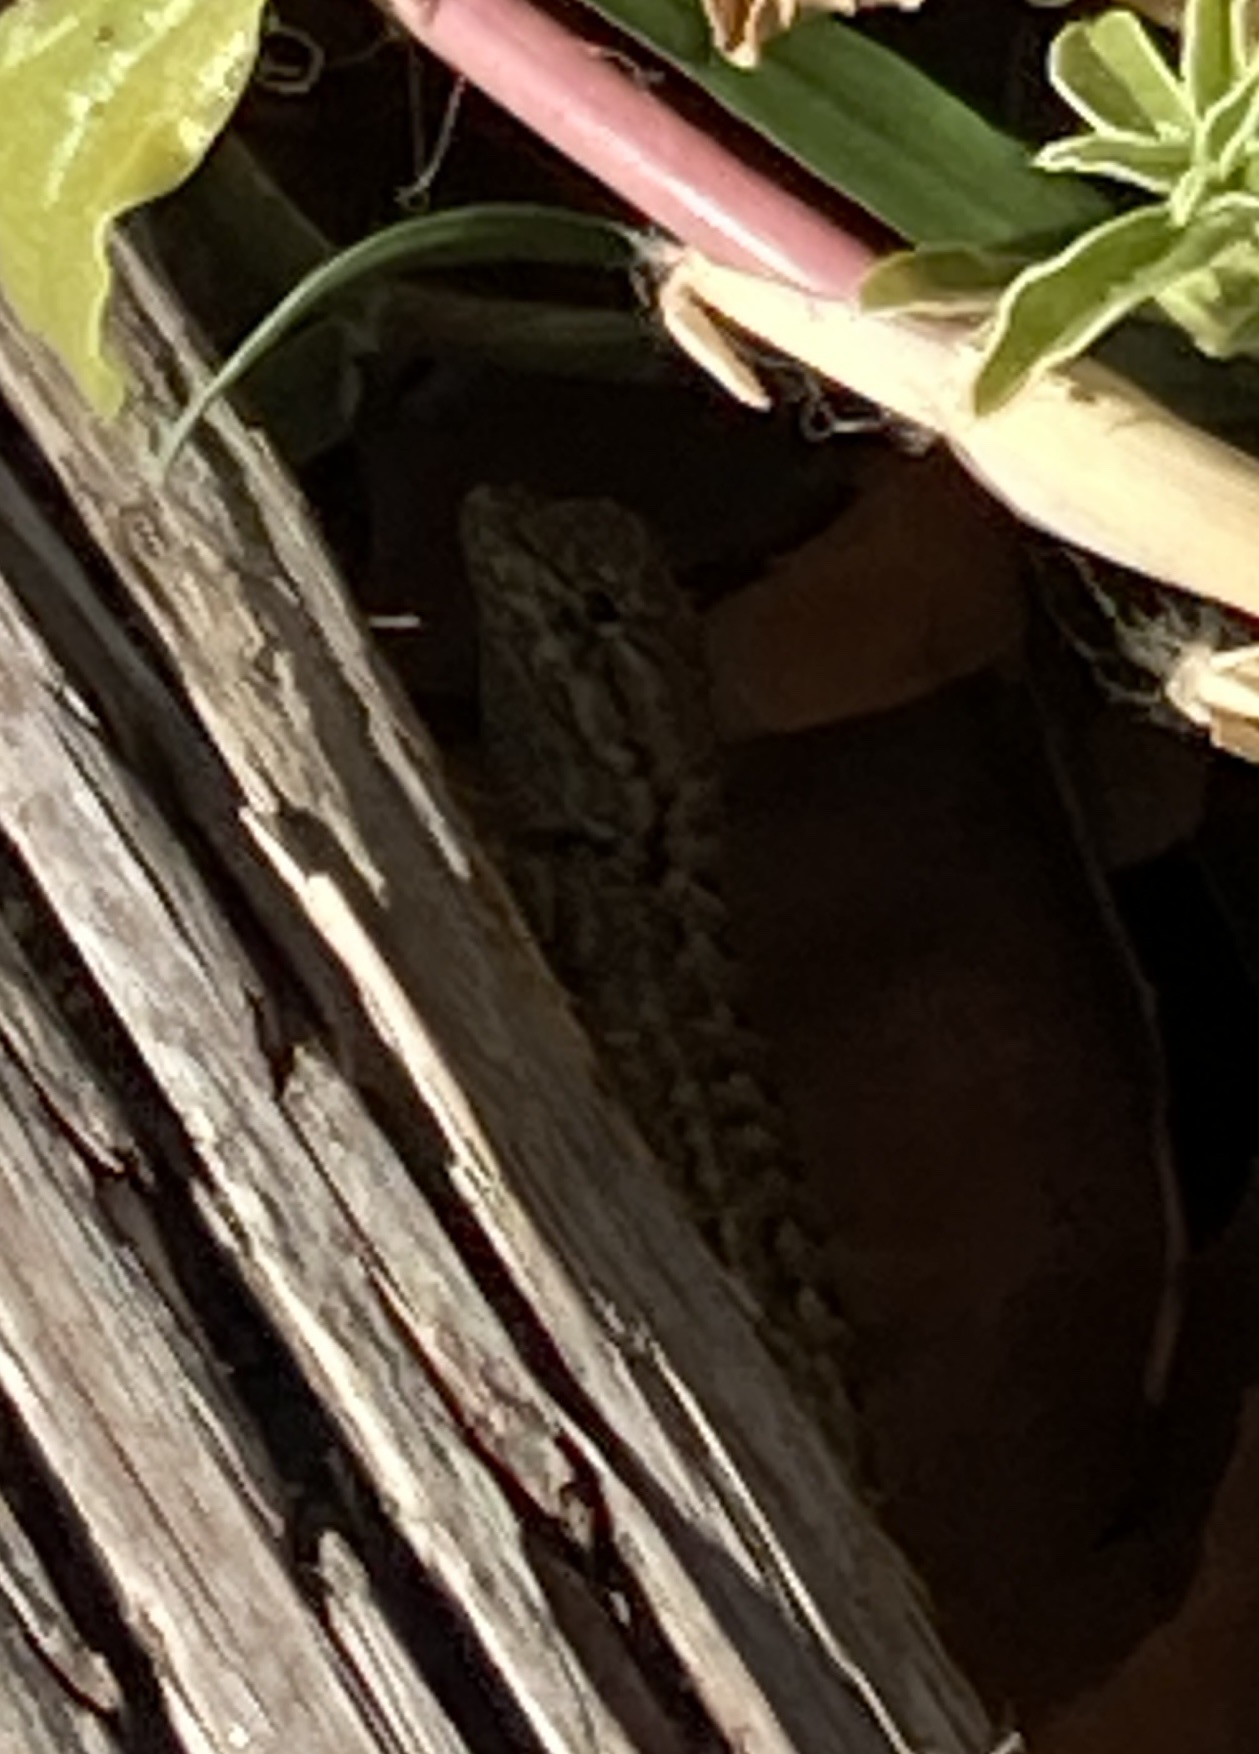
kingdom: Animalia
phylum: Chordata
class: Squamata
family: Phrynosomatidae
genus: Sceloporus
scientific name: Sceloporus occidentalis
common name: Western fence lizard
